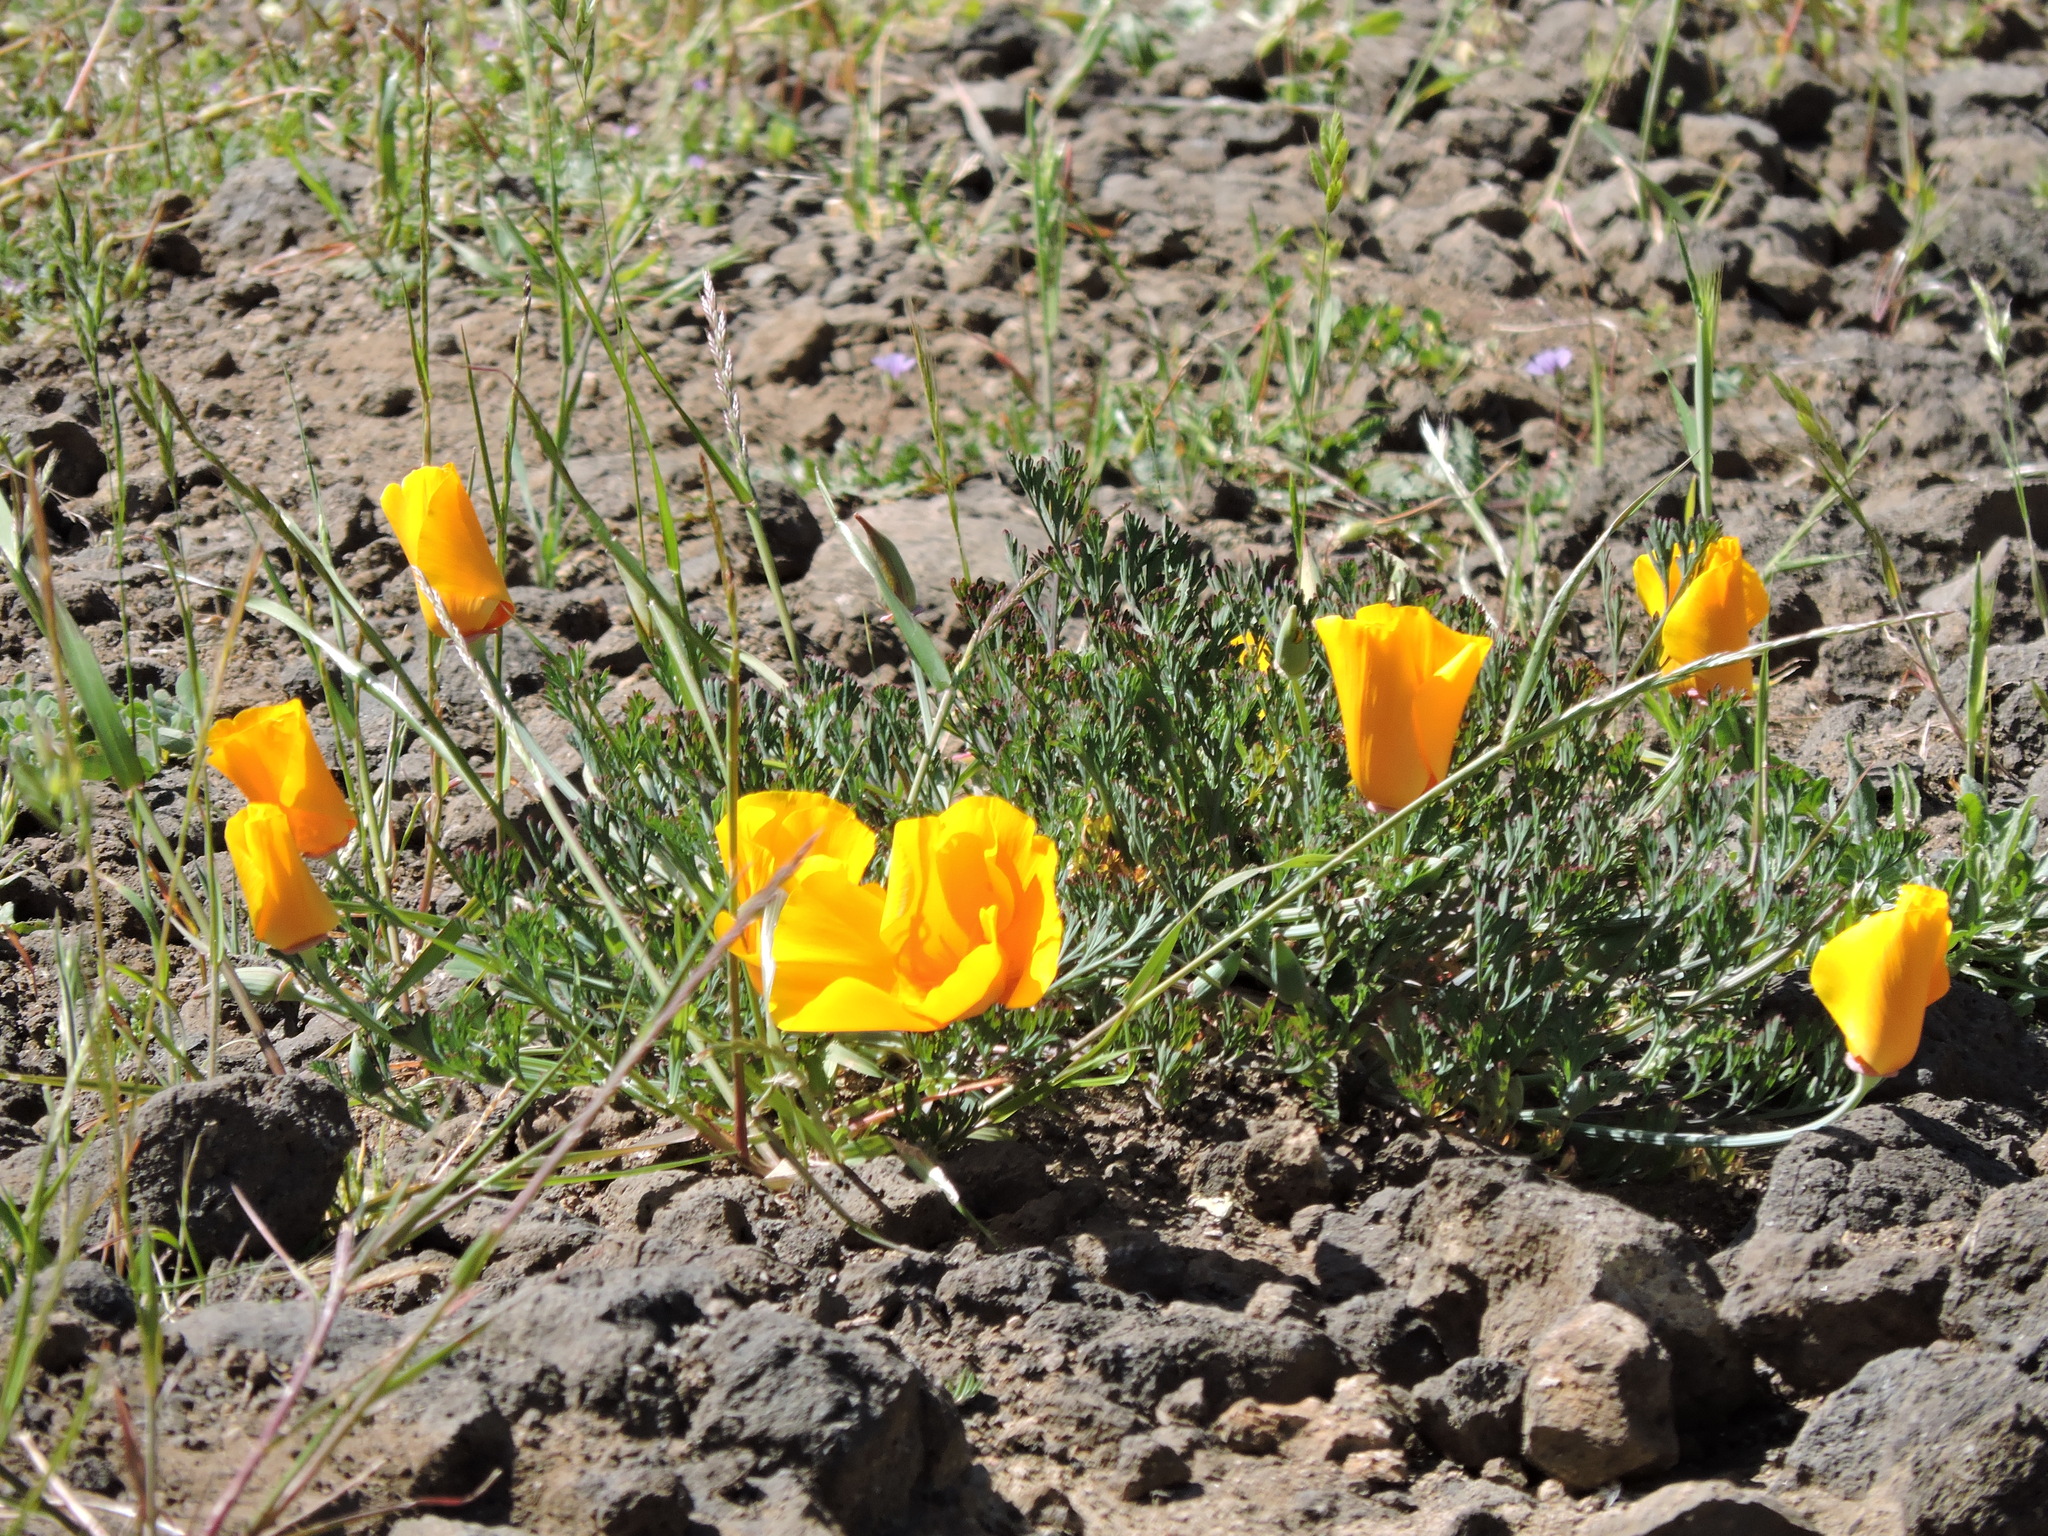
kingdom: Plantae
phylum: Tracheophyta
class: Magnoliopsida
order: Ranunculales
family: Papaveraceae
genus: Eschscholzia
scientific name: Eschscholzia californica
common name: California poppy
